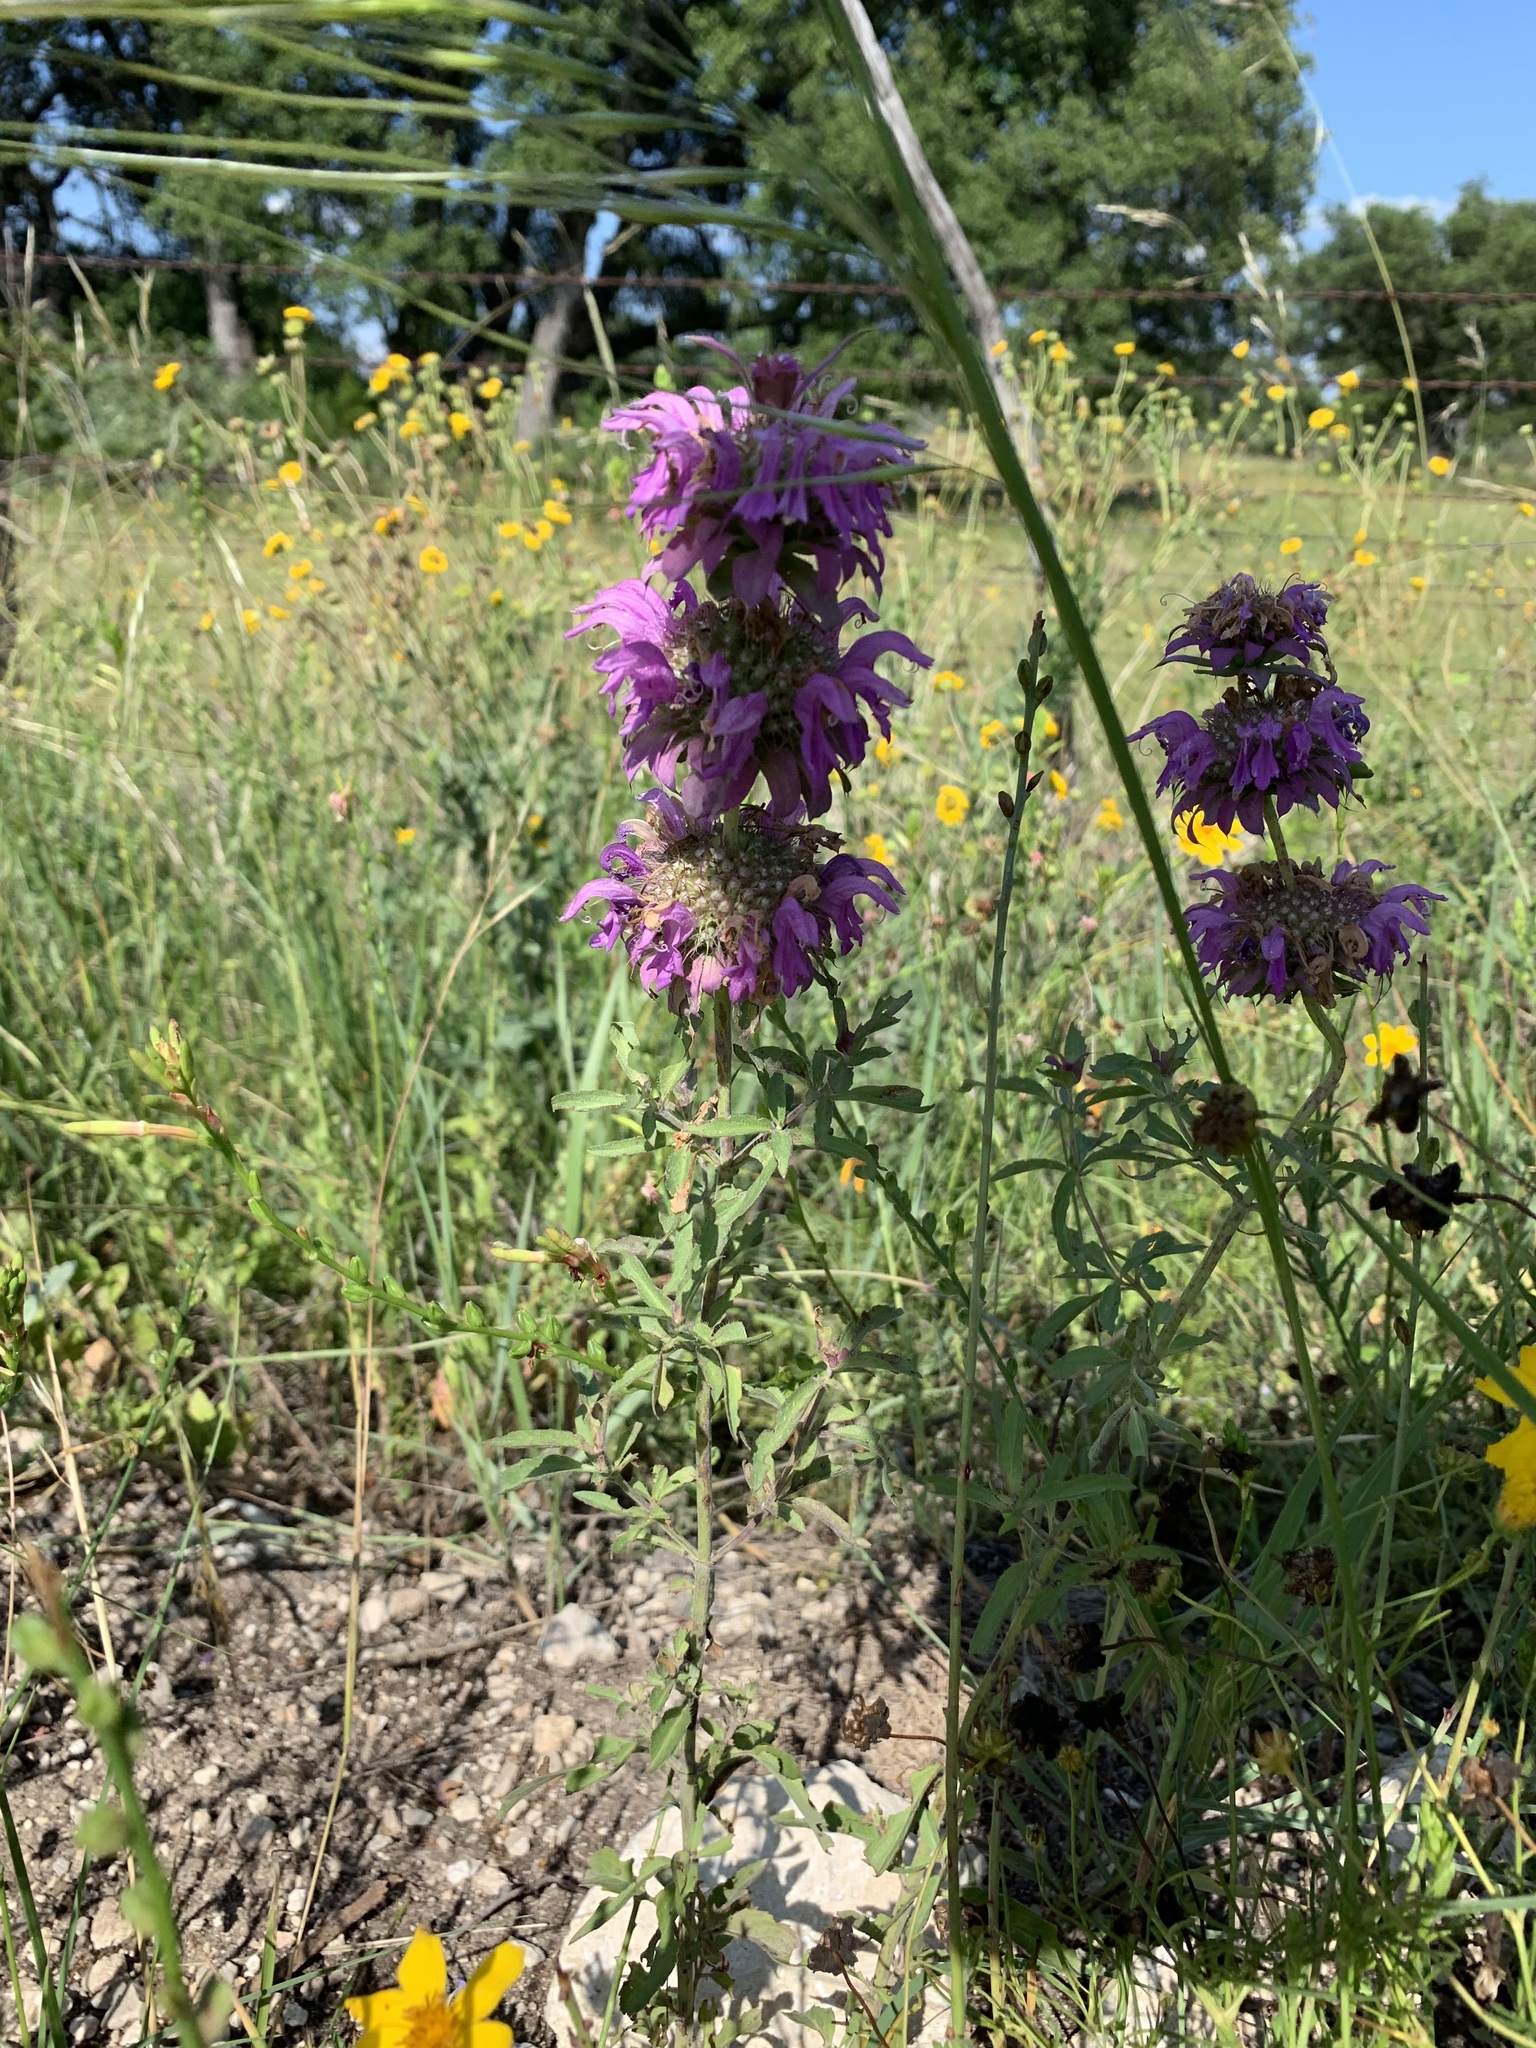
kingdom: Plantae
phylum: Tracheophyta
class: Magnoliopsida
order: Lamiales
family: Lamiaceae
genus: Monarda
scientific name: Monarda citriodora
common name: Lemon beebalm
